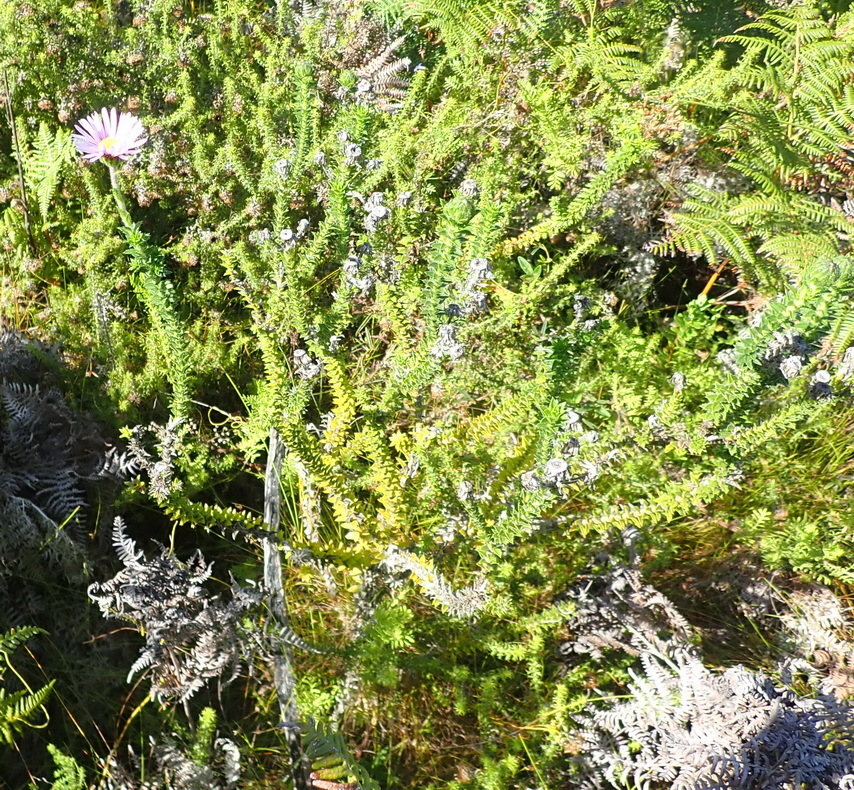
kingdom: Plantae
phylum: Tracheophyta
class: Magnoliopsida
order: Asterales
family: Asteraceae
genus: Felicia
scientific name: Felicia echinata
